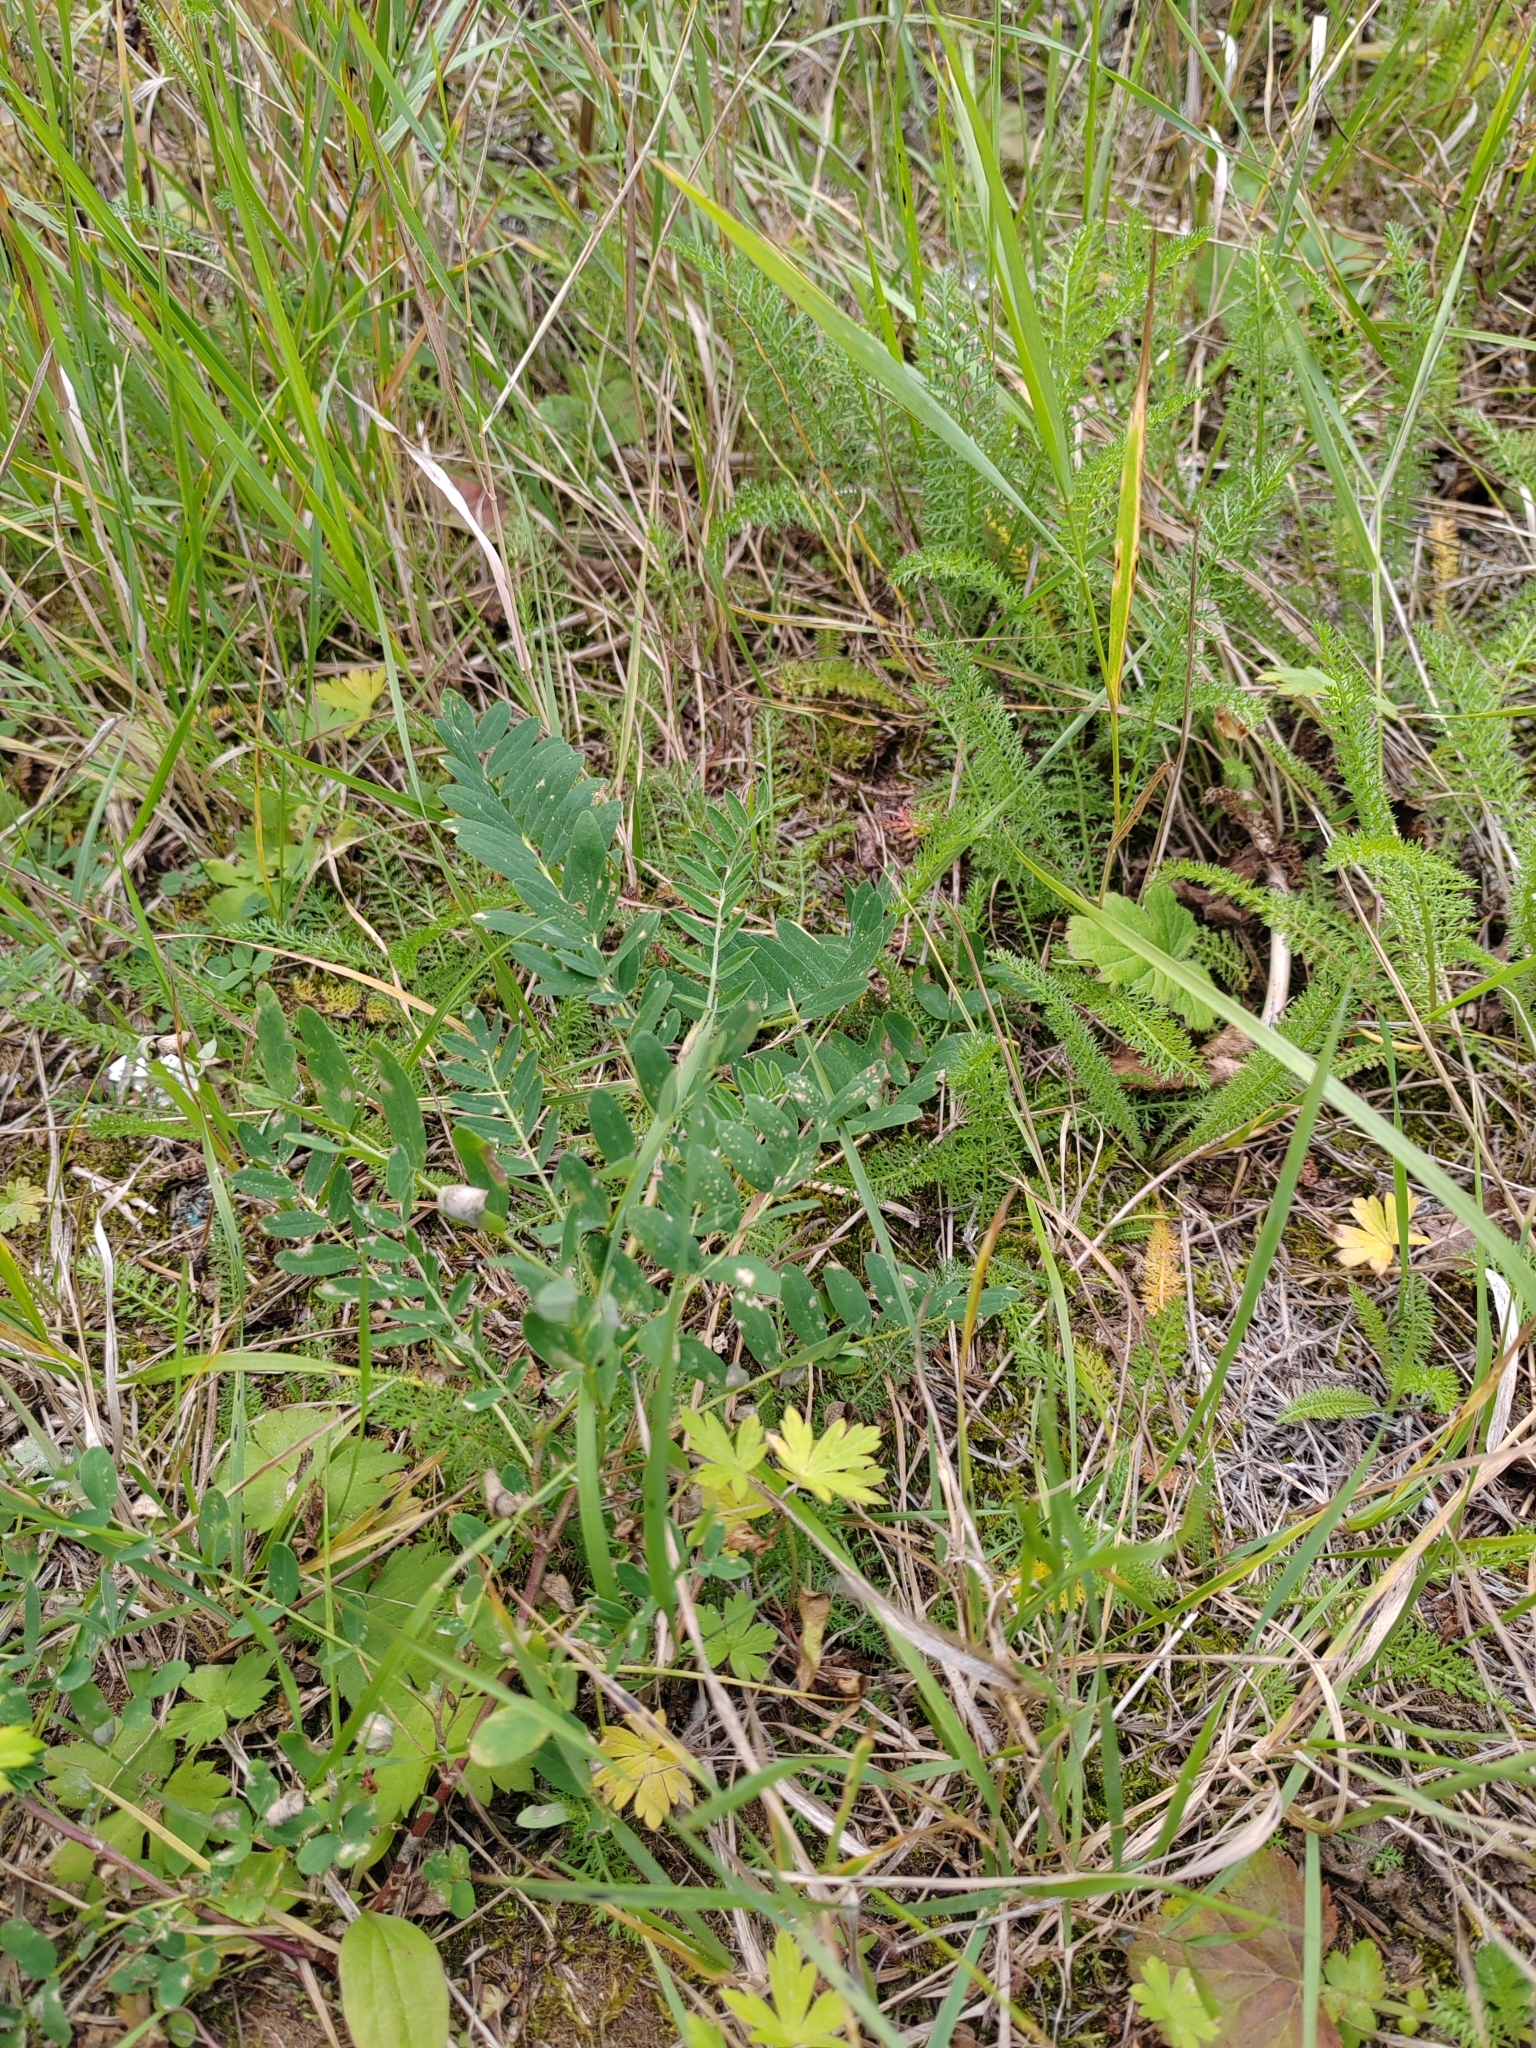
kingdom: Plantae
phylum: Tracheophyta
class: Magnoliopsida
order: Fabales
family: Fabaceae
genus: Astragalus
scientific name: Astragalus uliginosus
